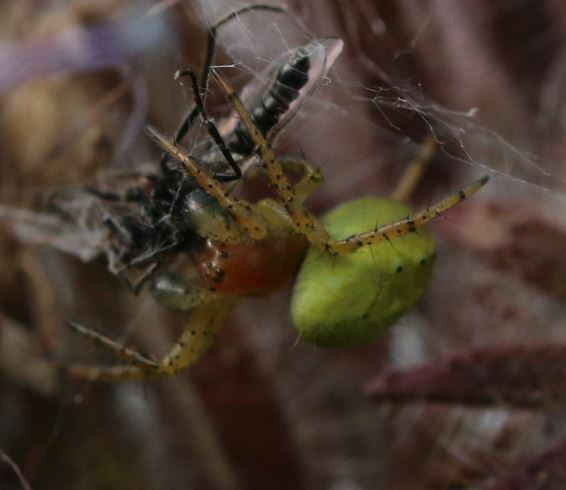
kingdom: Animalia
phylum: Arthropoda
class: Arachnida
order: Araneae
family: Araneidae
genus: Araniella
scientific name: Araniella
